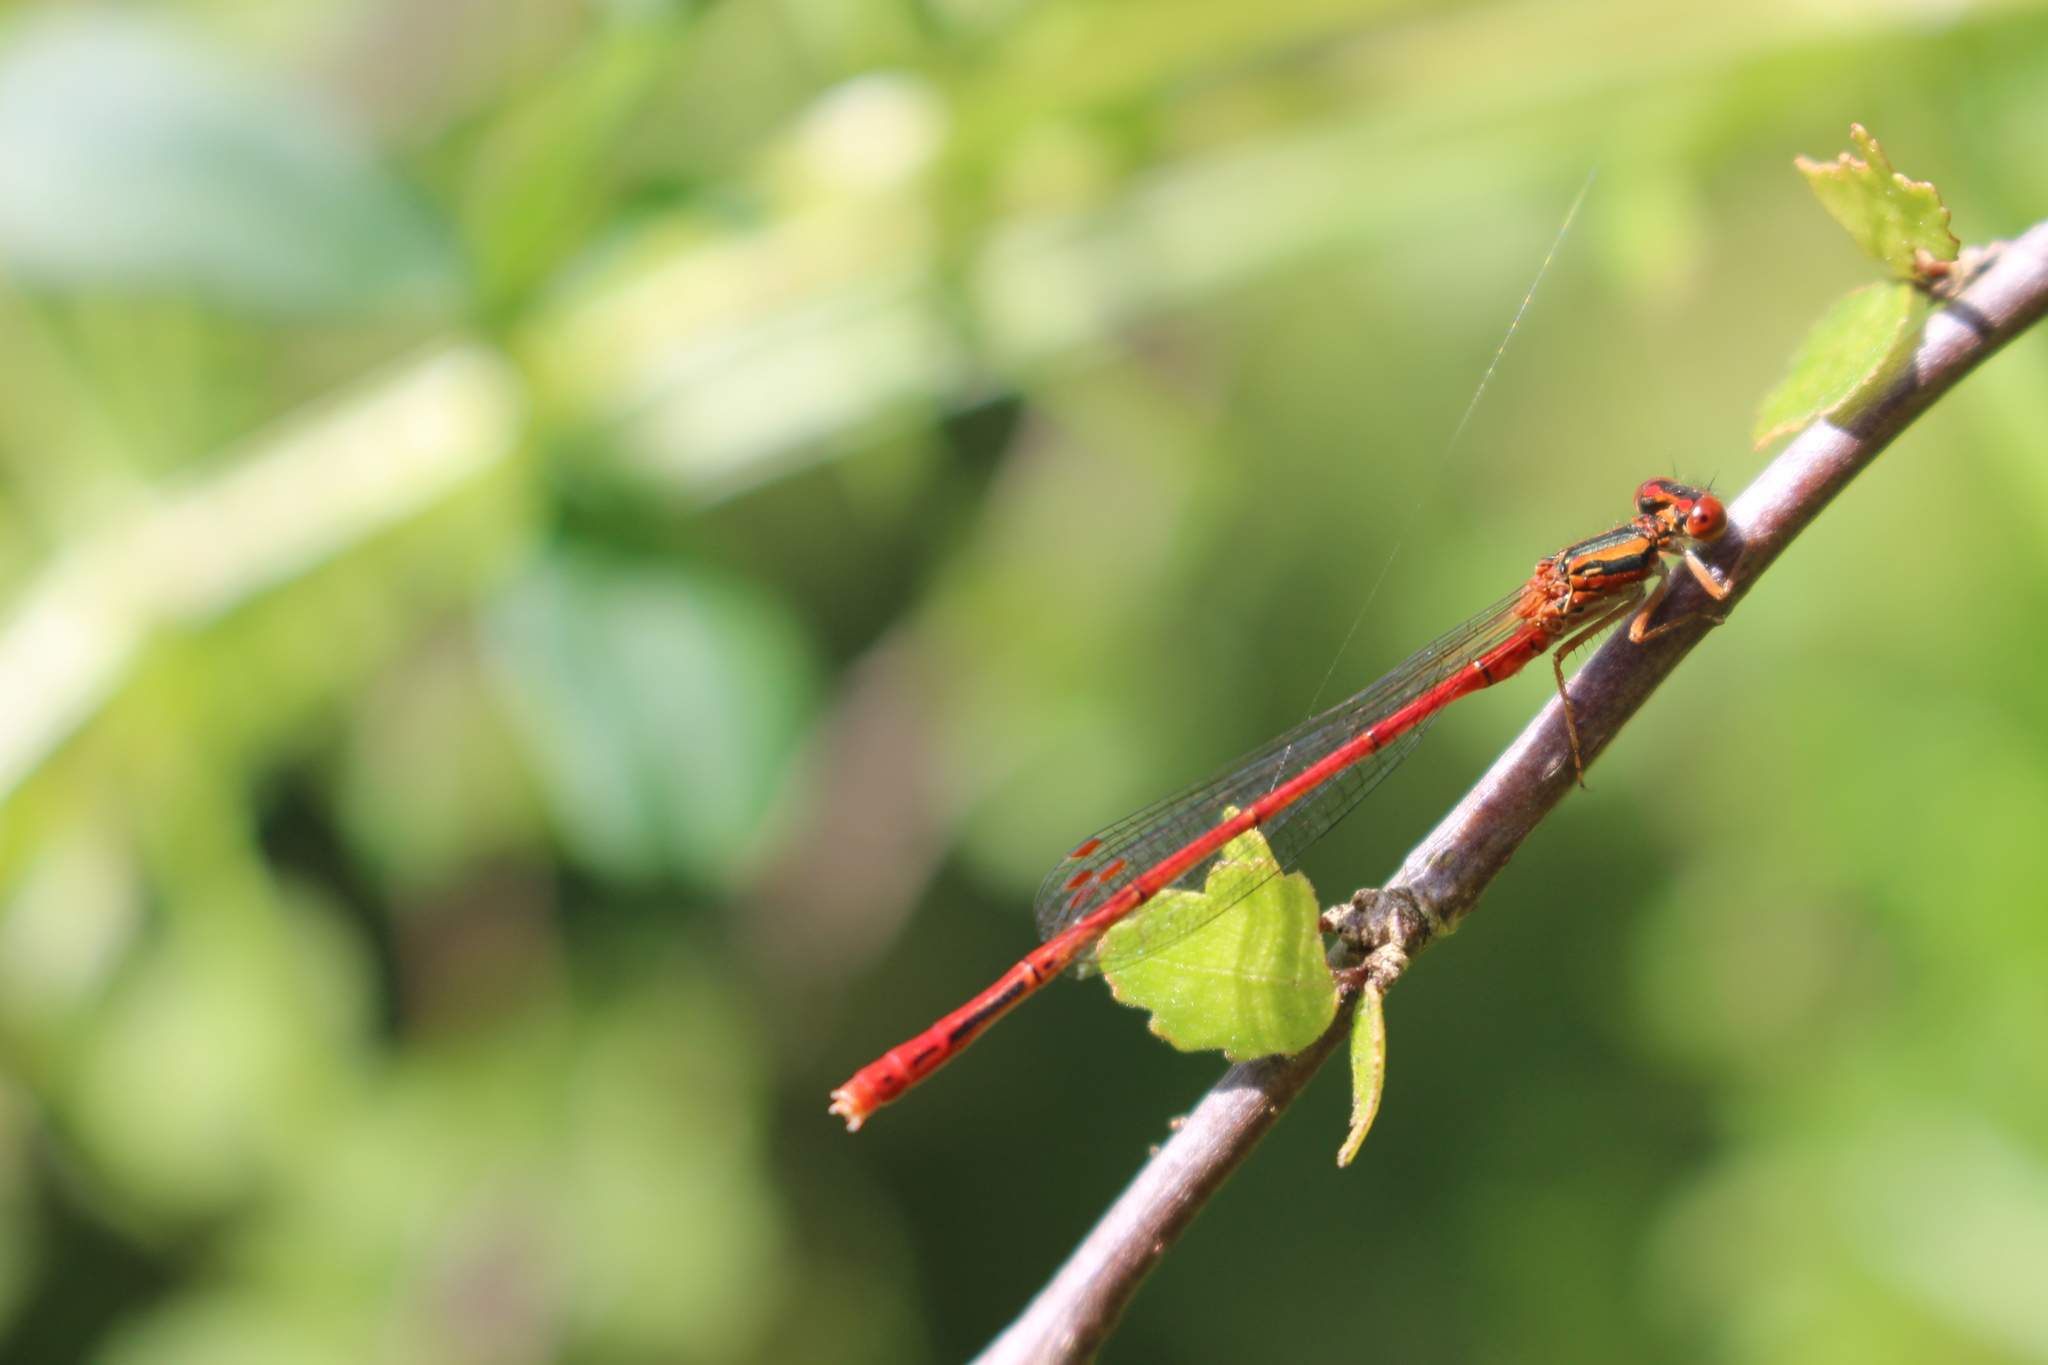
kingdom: Animalia
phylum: Arthropoda
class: Insecta
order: Odonata
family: Coenagrionidae
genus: Xanthocnemis
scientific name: Xanthocnemis zealandica
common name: Common redcoat damselfly
